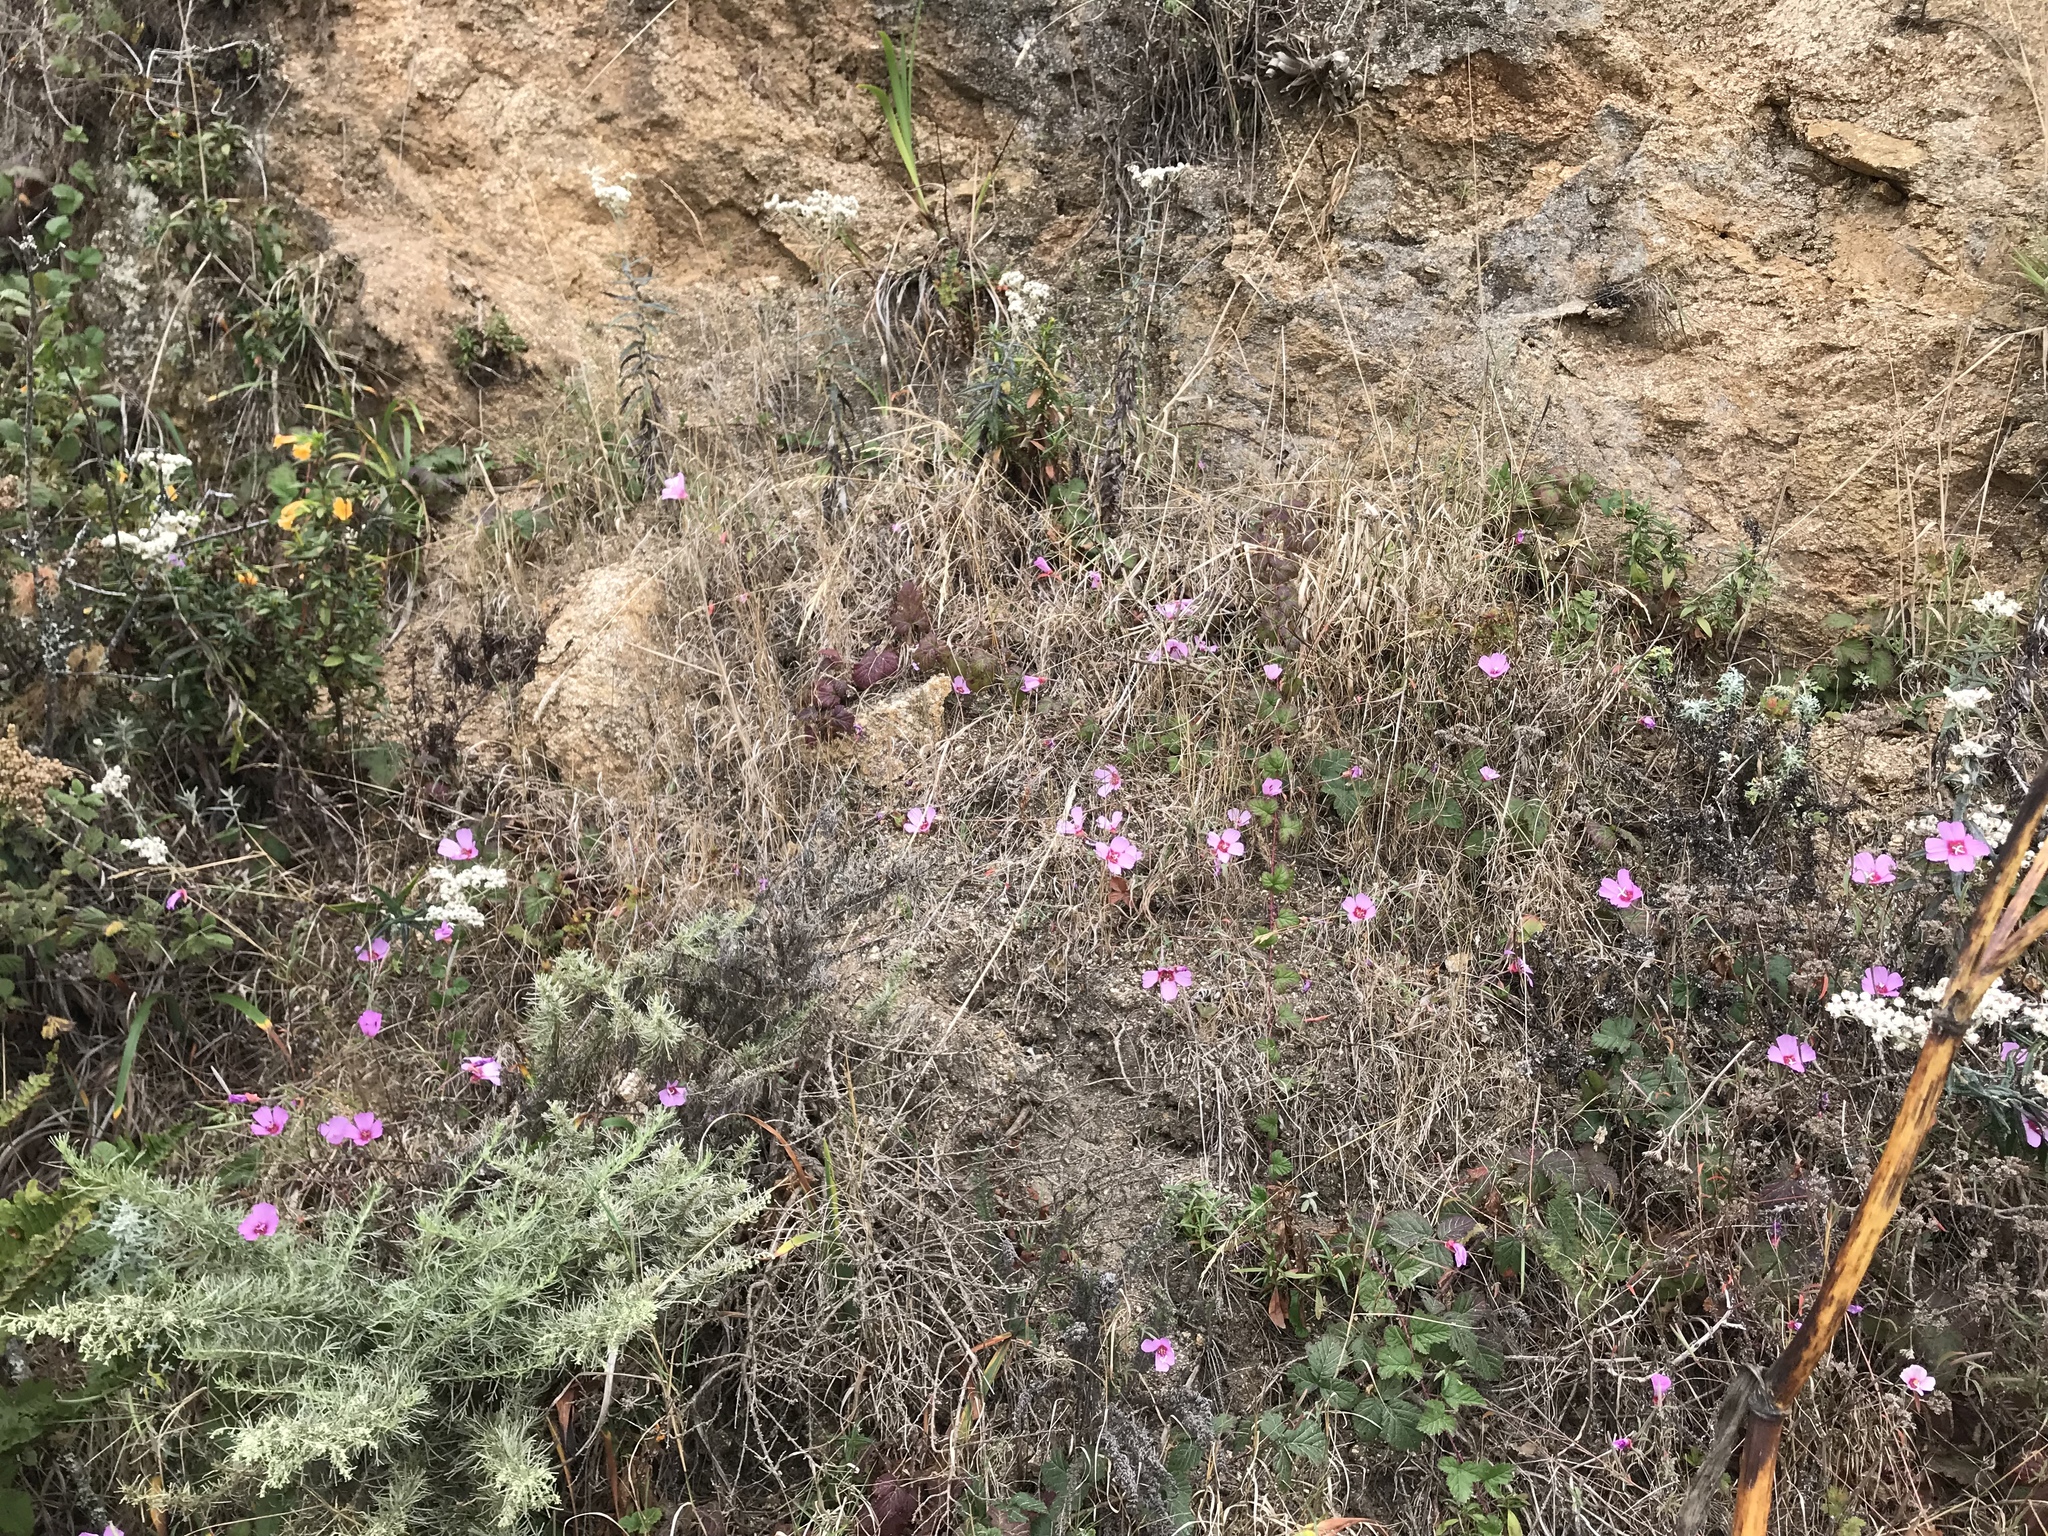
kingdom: Plantae
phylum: Tracheophyta
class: Magnoliopsida
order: Myrtales
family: Onagraceae
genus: Clarkia
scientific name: Clarkia rubicunda
